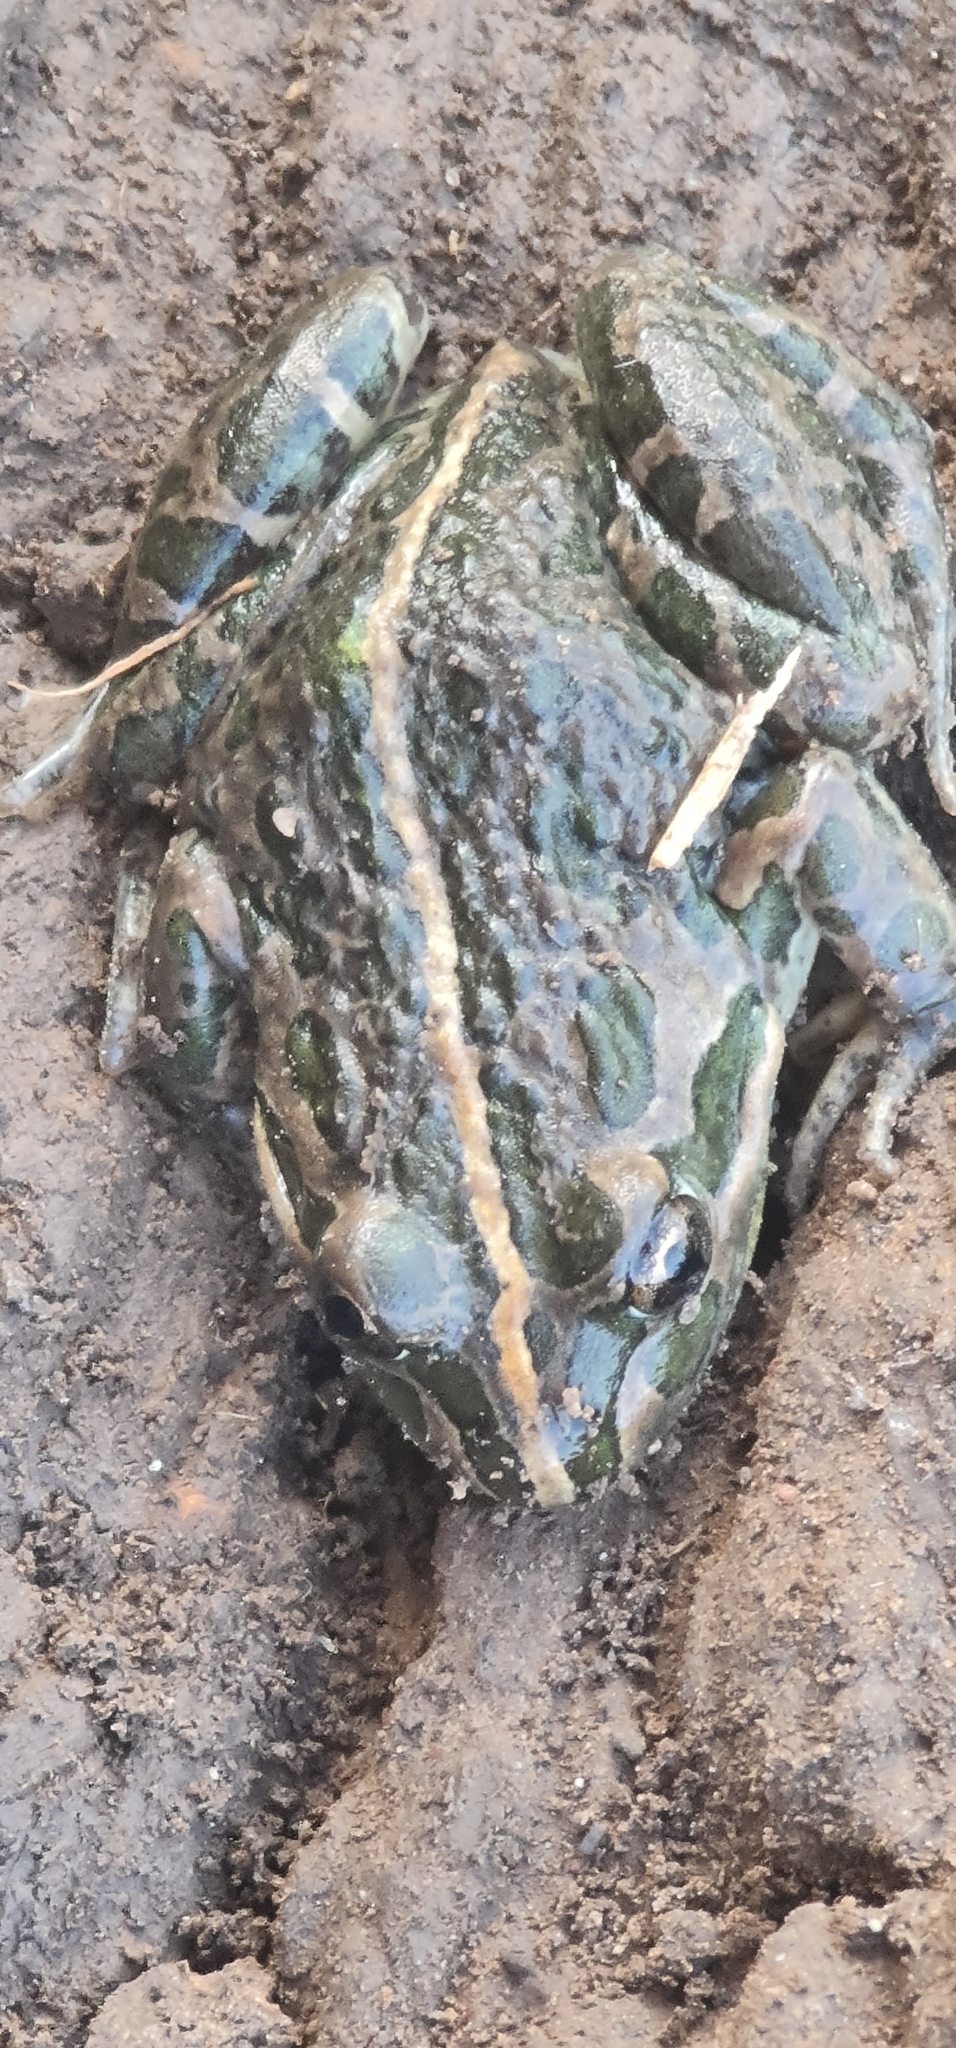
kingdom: Animalia
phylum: Chordata
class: Amphibia
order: Anura
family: Limnodynastidae
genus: Limnodynastes
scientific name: Limnodynastes tasmaniensis
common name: Spotted marsh frog
